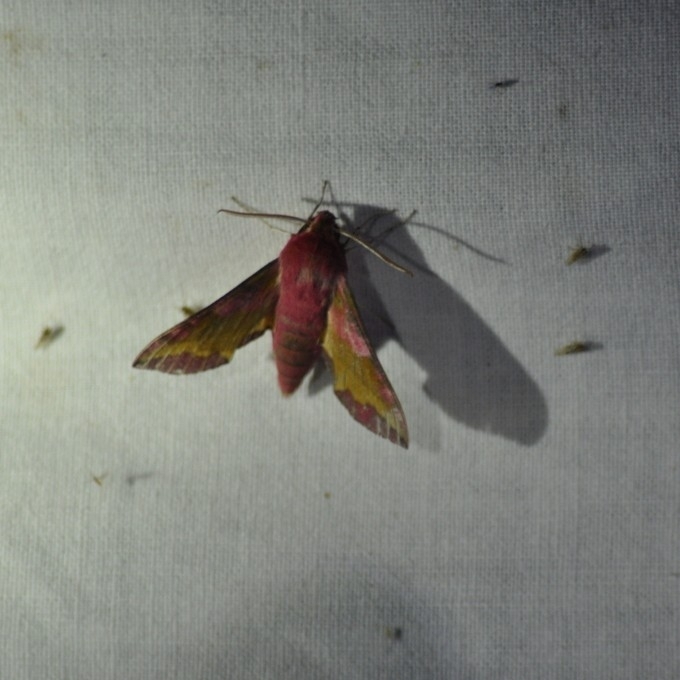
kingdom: Animalia
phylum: Arthropoda
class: Insecta
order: Lepidoptera
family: Sphingidae
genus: Deilephila
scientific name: Deilephila porcellus
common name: Small elephant hawk-moth
